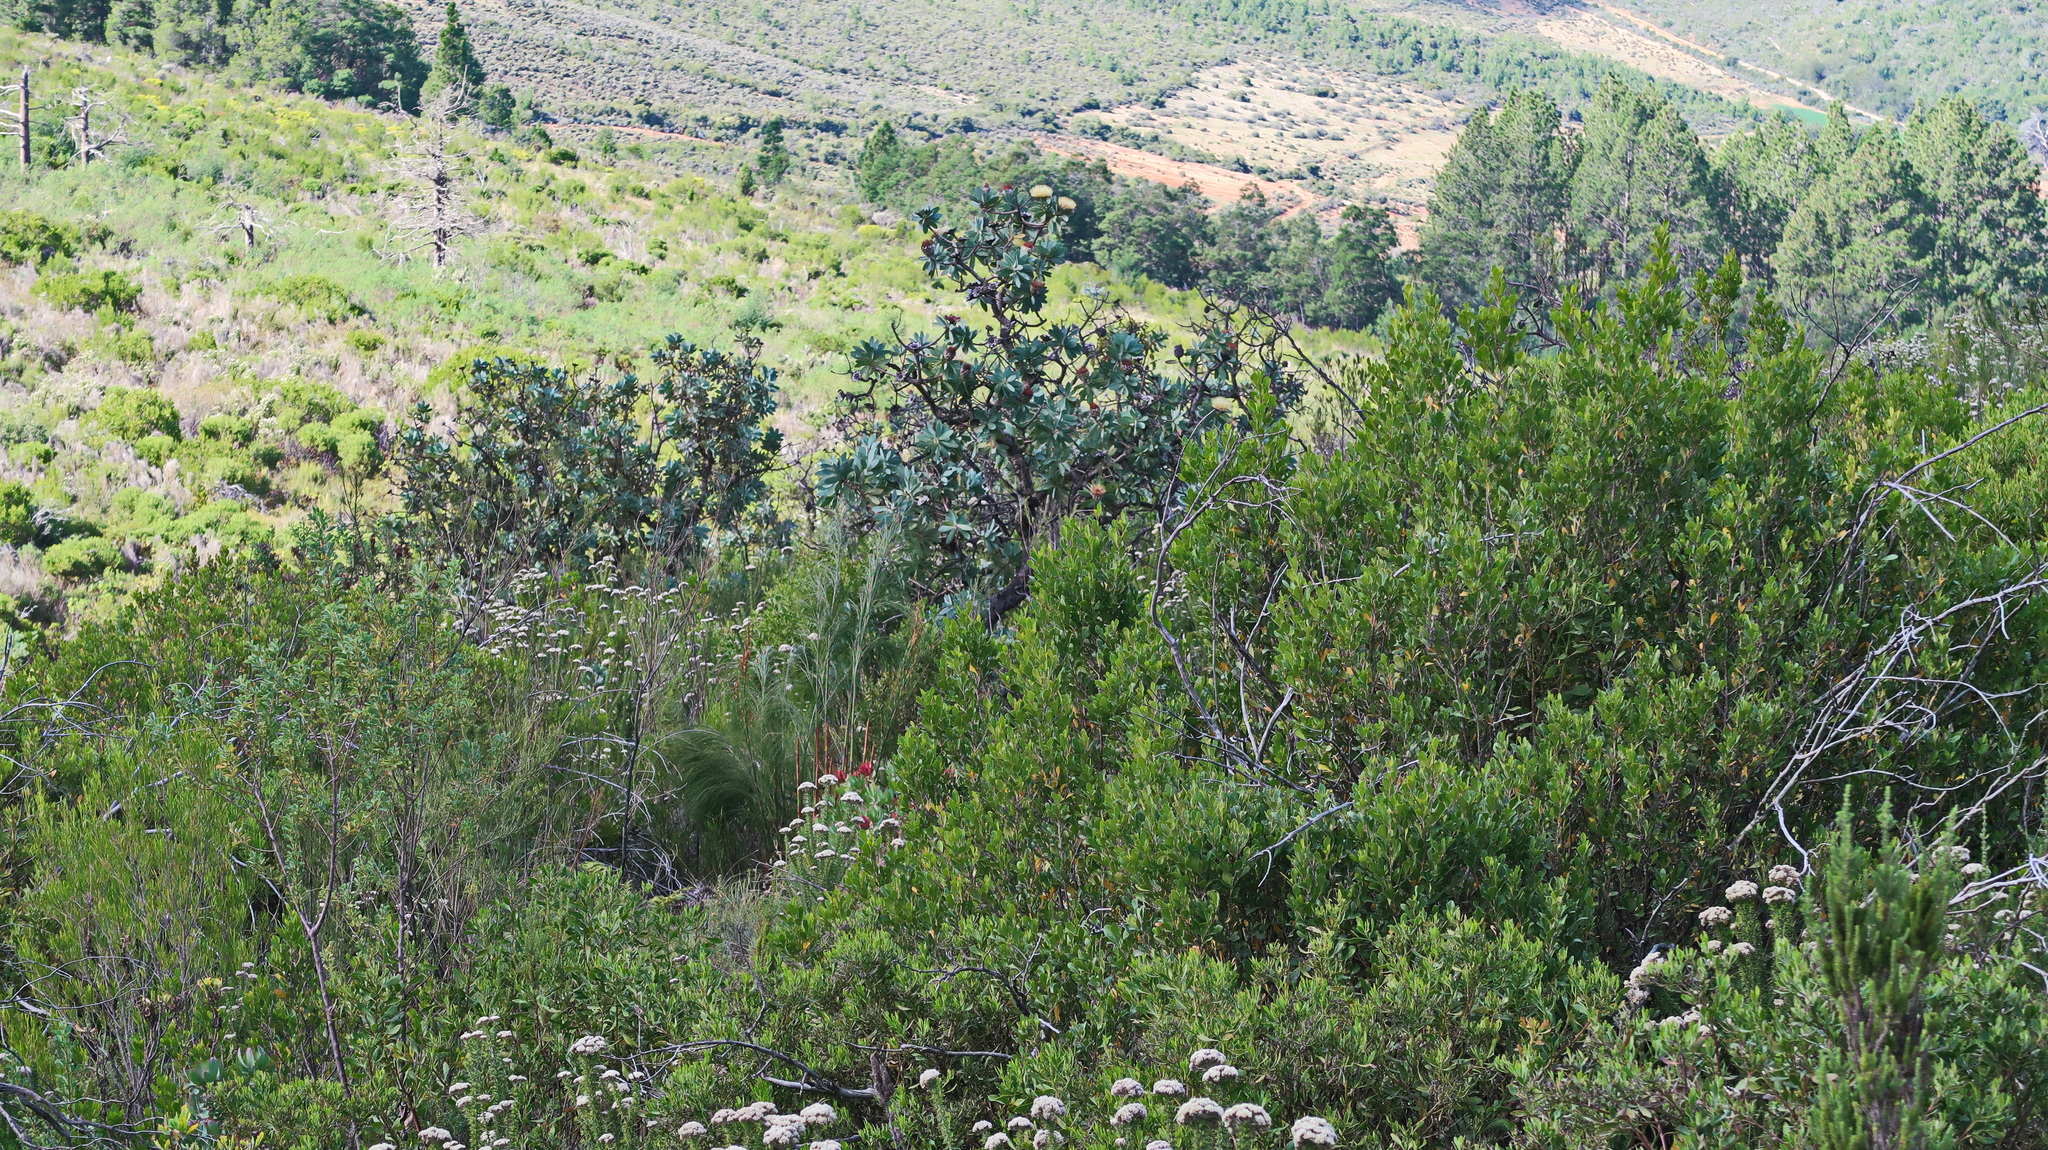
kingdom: Plantae
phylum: Tracheophyta
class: Pinopsida
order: Pinales
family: Pinaceae
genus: Pinus
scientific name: Pinus pinaster
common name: Maritime pine
